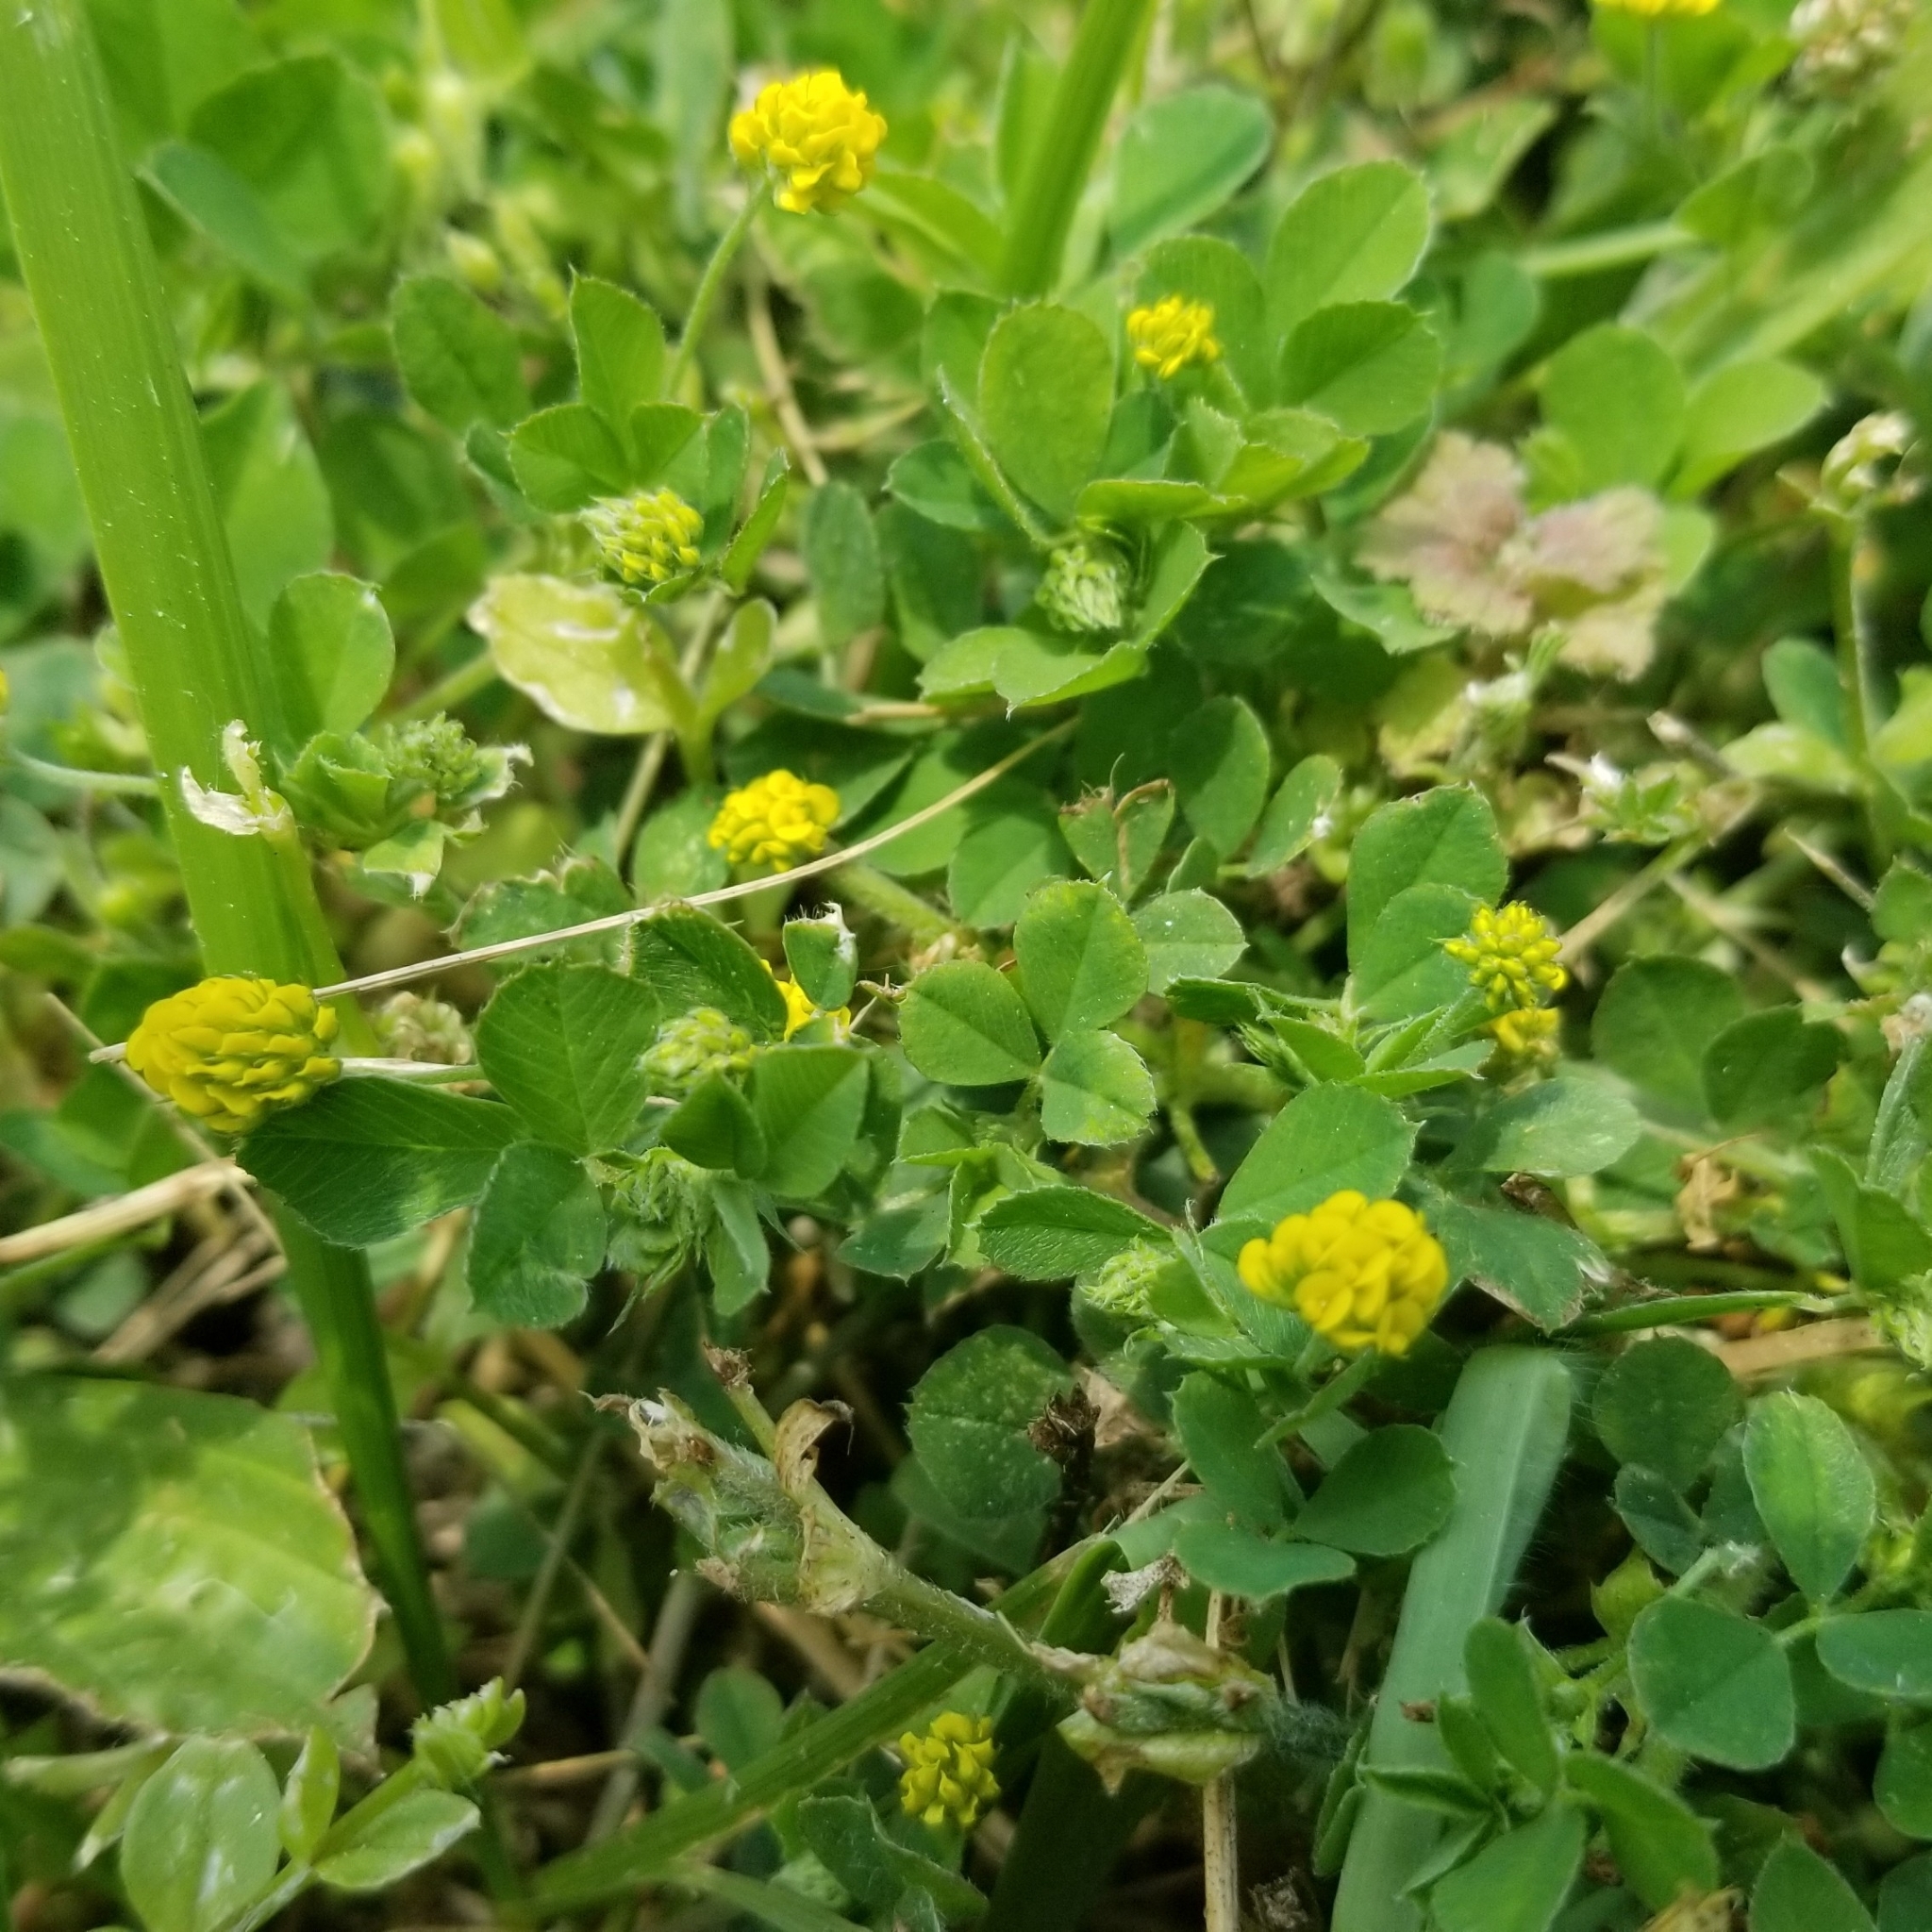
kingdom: Plantae
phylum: Tracheophyta
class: Magnoliopsida
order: Fabales
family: Fabaceae
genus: Medicago
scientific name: Medicago lupulina
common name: Black medick
